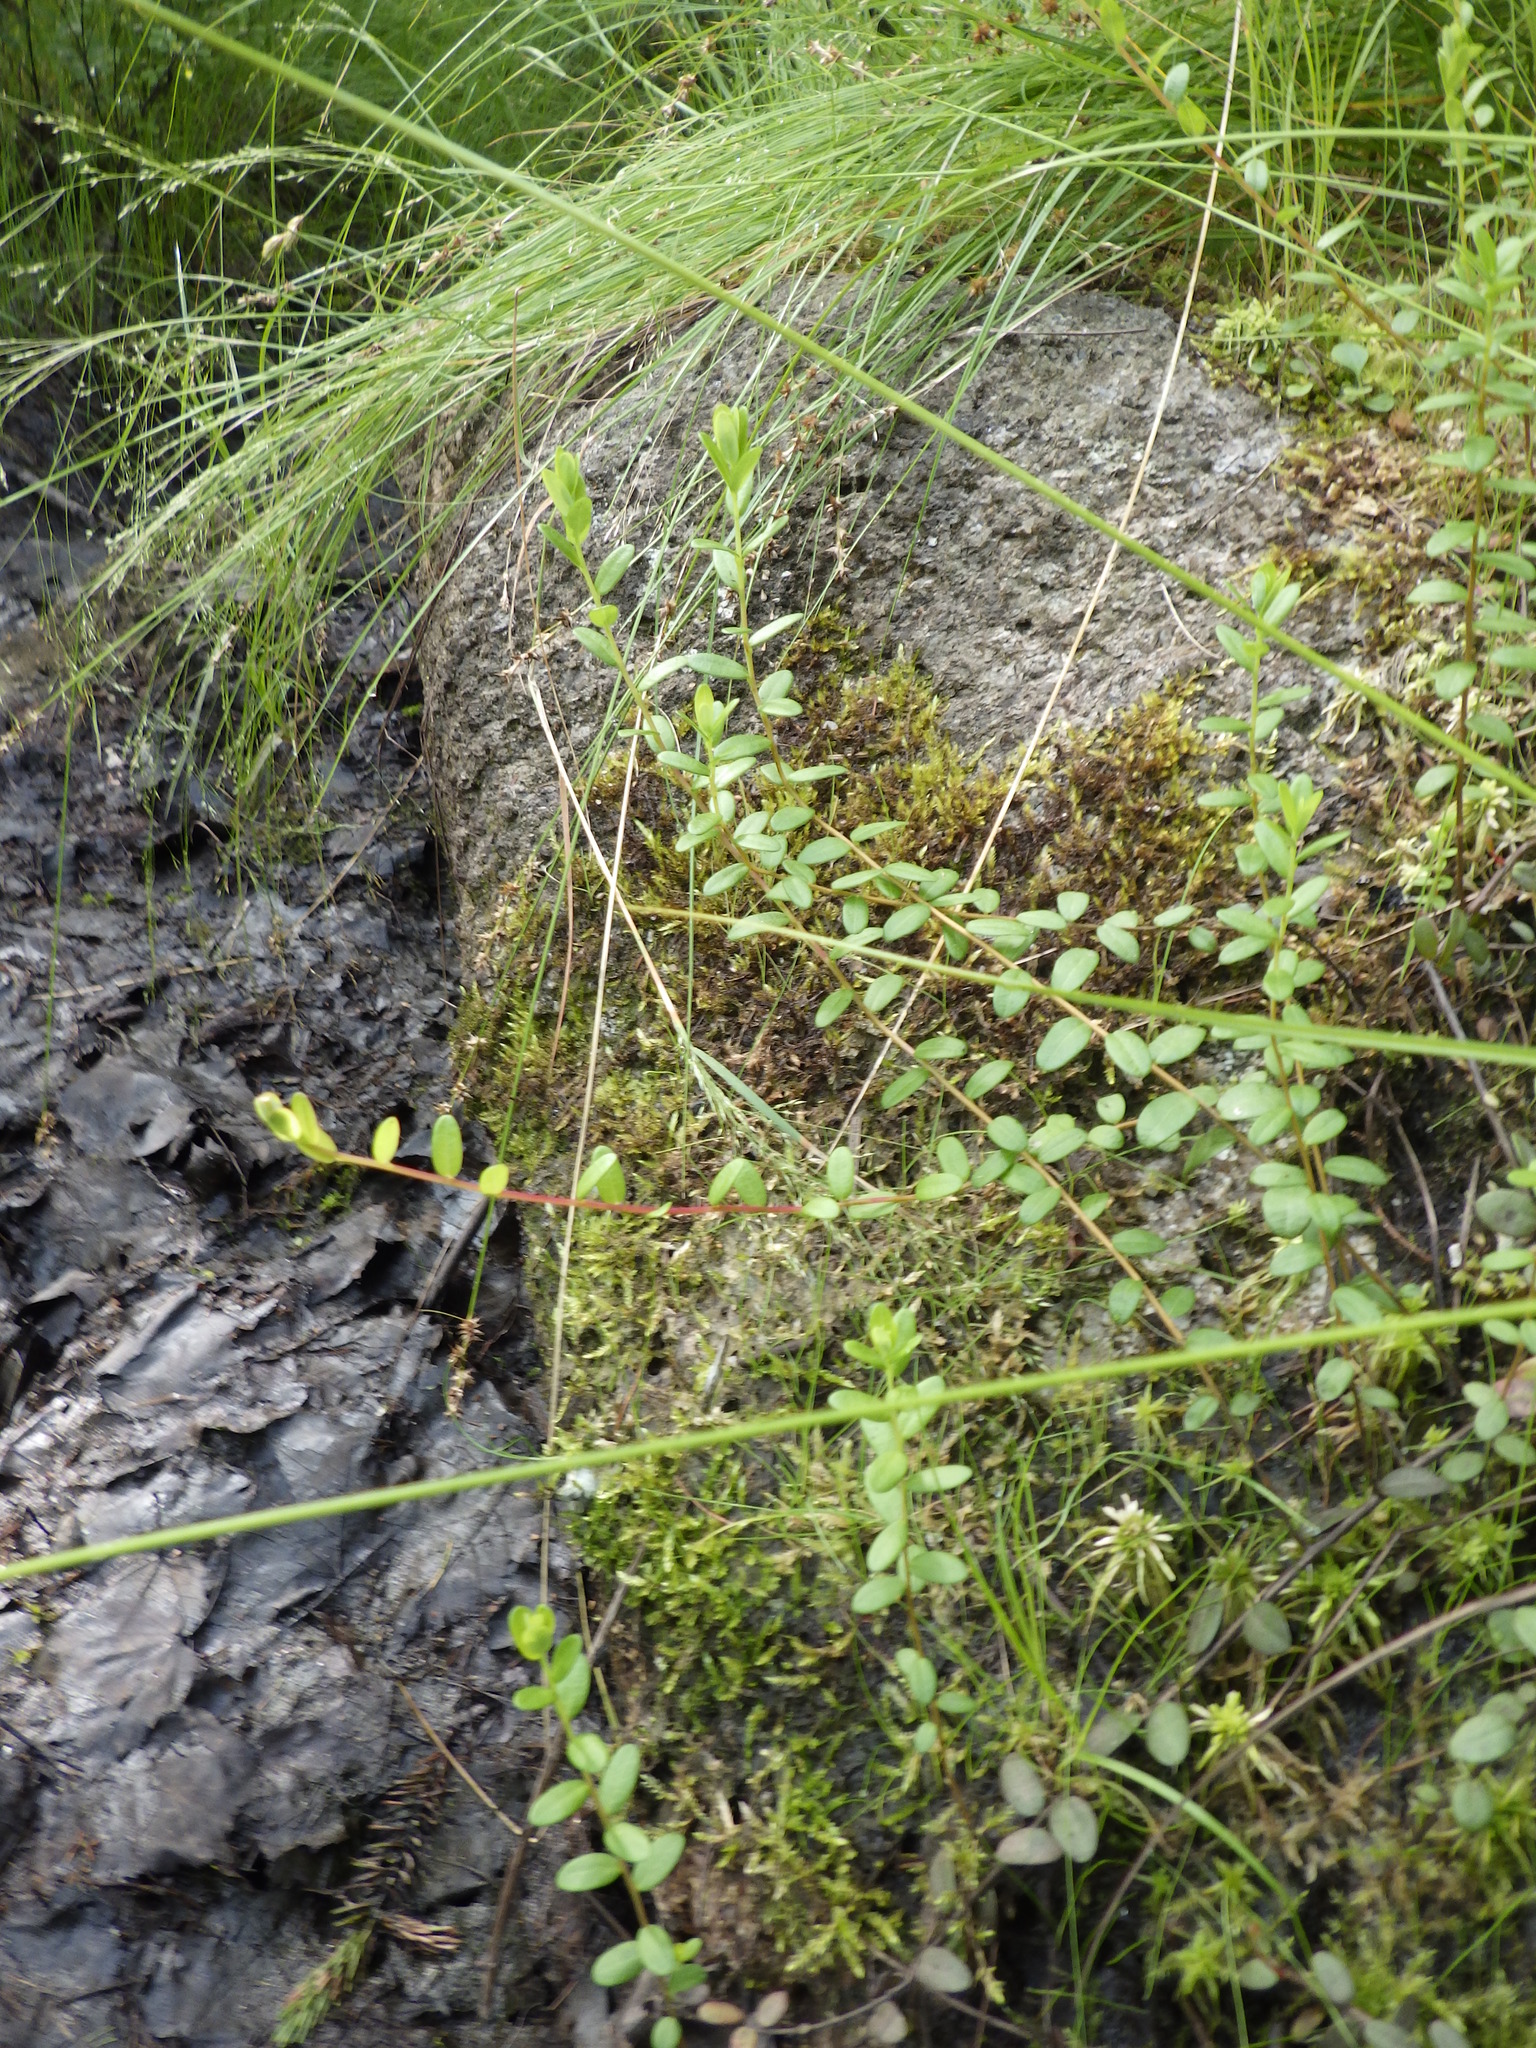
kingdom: Plantae
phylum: Tracheophyta
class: Magnoliopsida
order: Ericales
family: Ericaceae
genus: Vaccinium
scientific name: Vaccinium macrocarpon
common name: American cranberry
